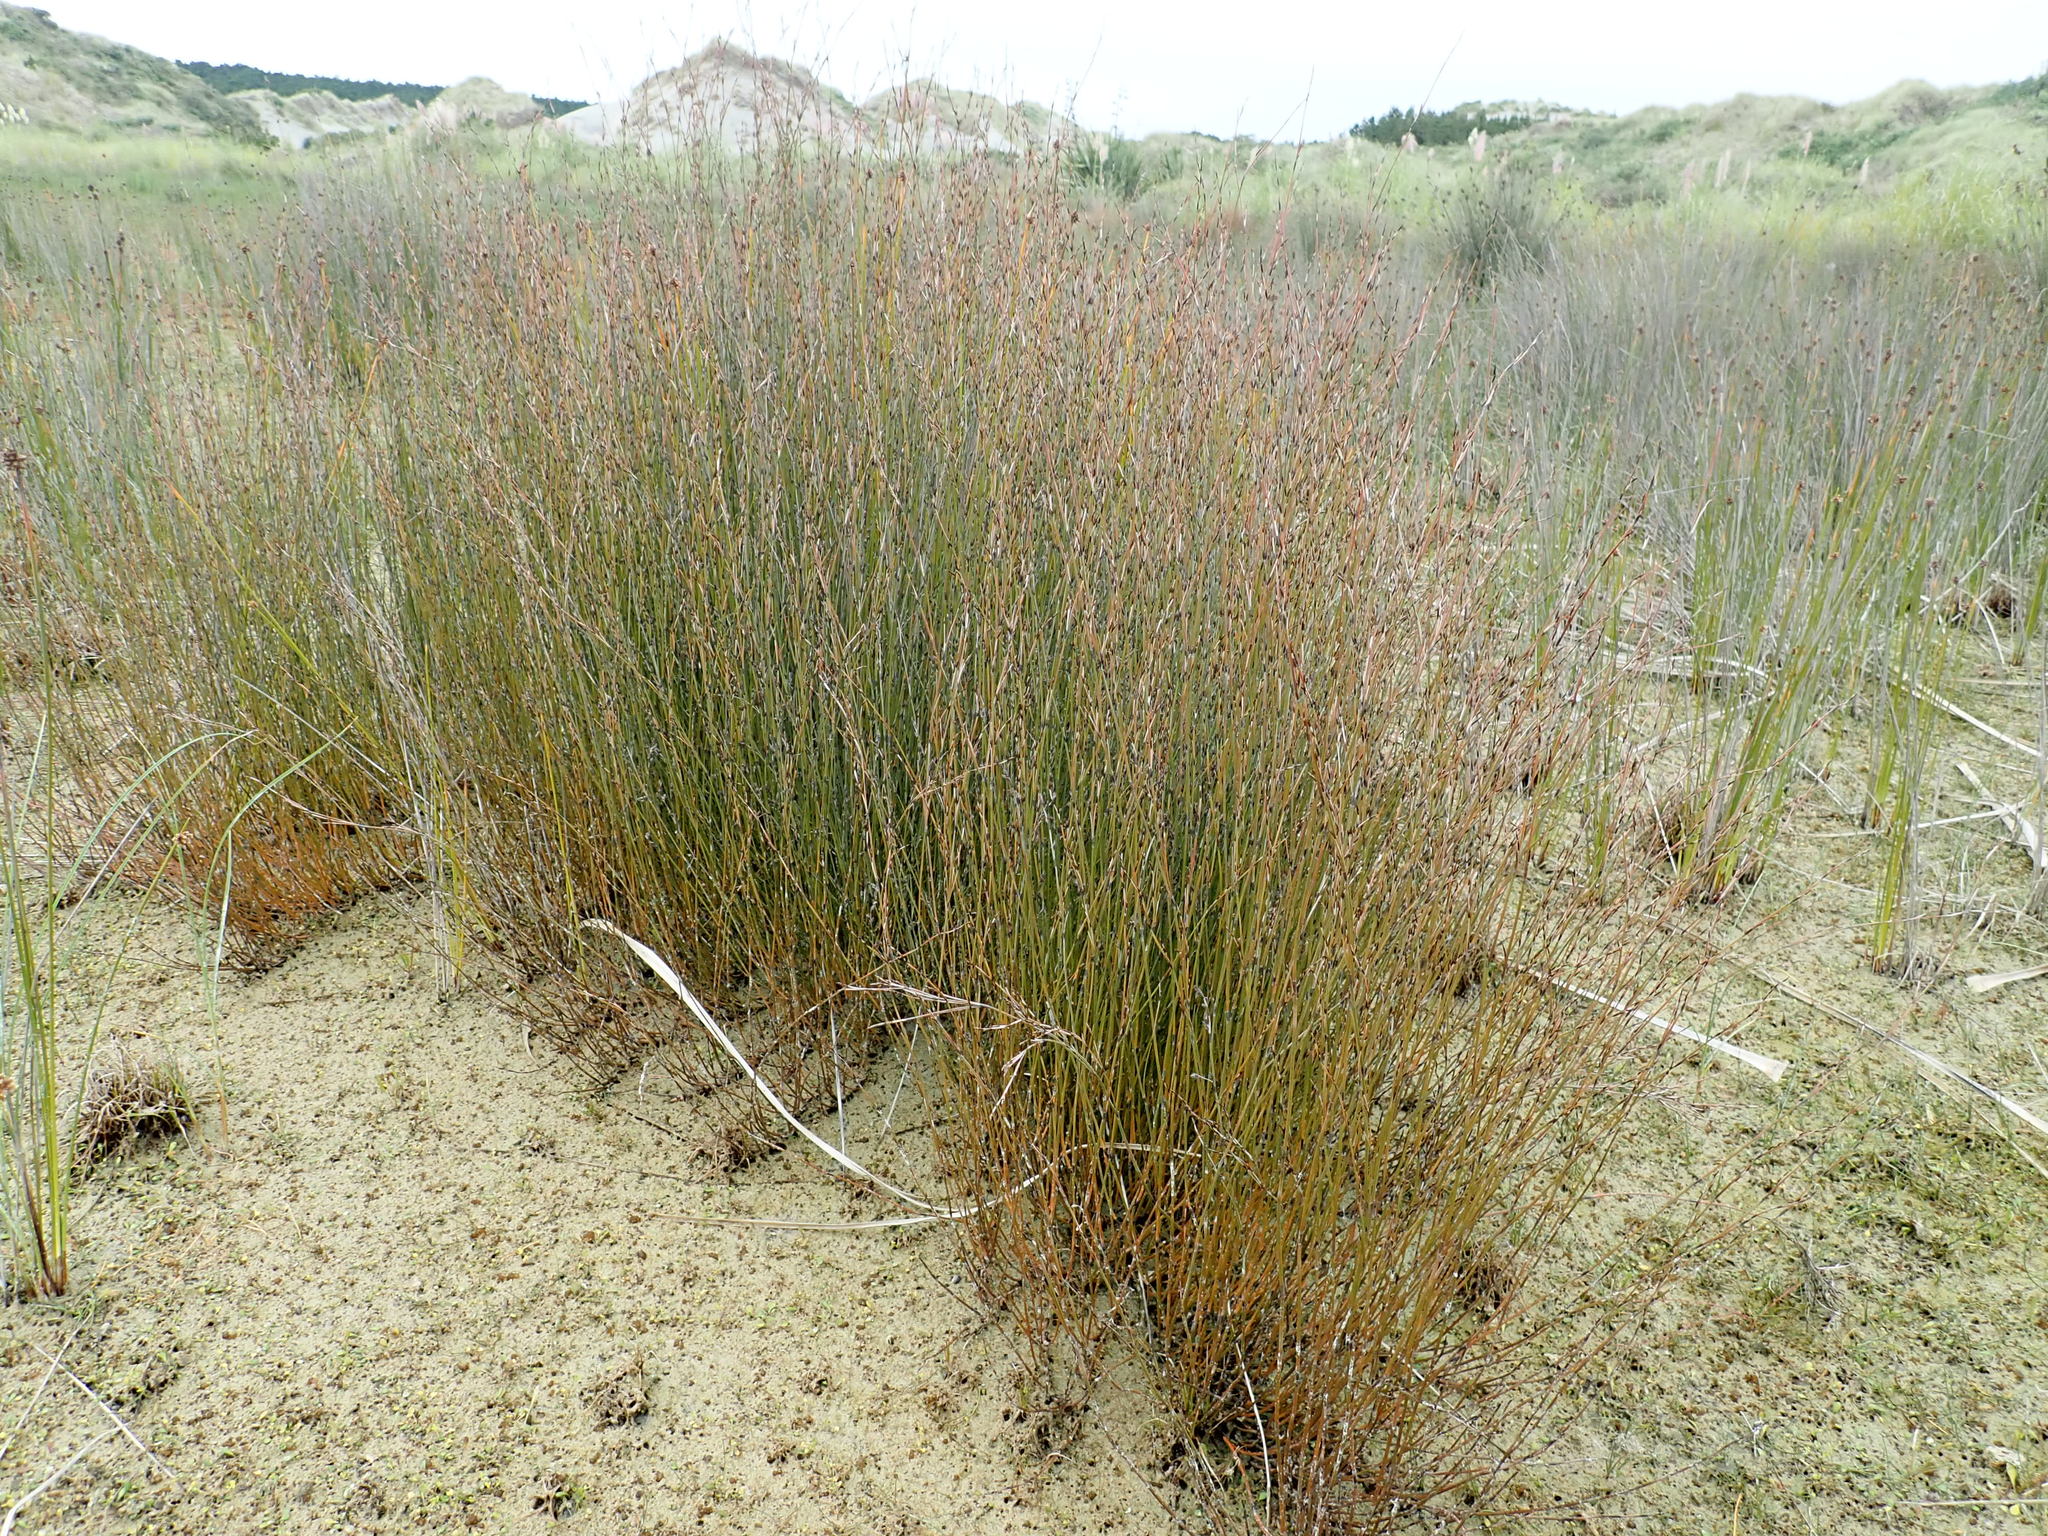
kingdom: Plantae
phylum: Tracheophyta
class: Liliopsida
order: Poales
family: Restionaceae
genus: Apodasmia
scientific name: Apodasmia similis
